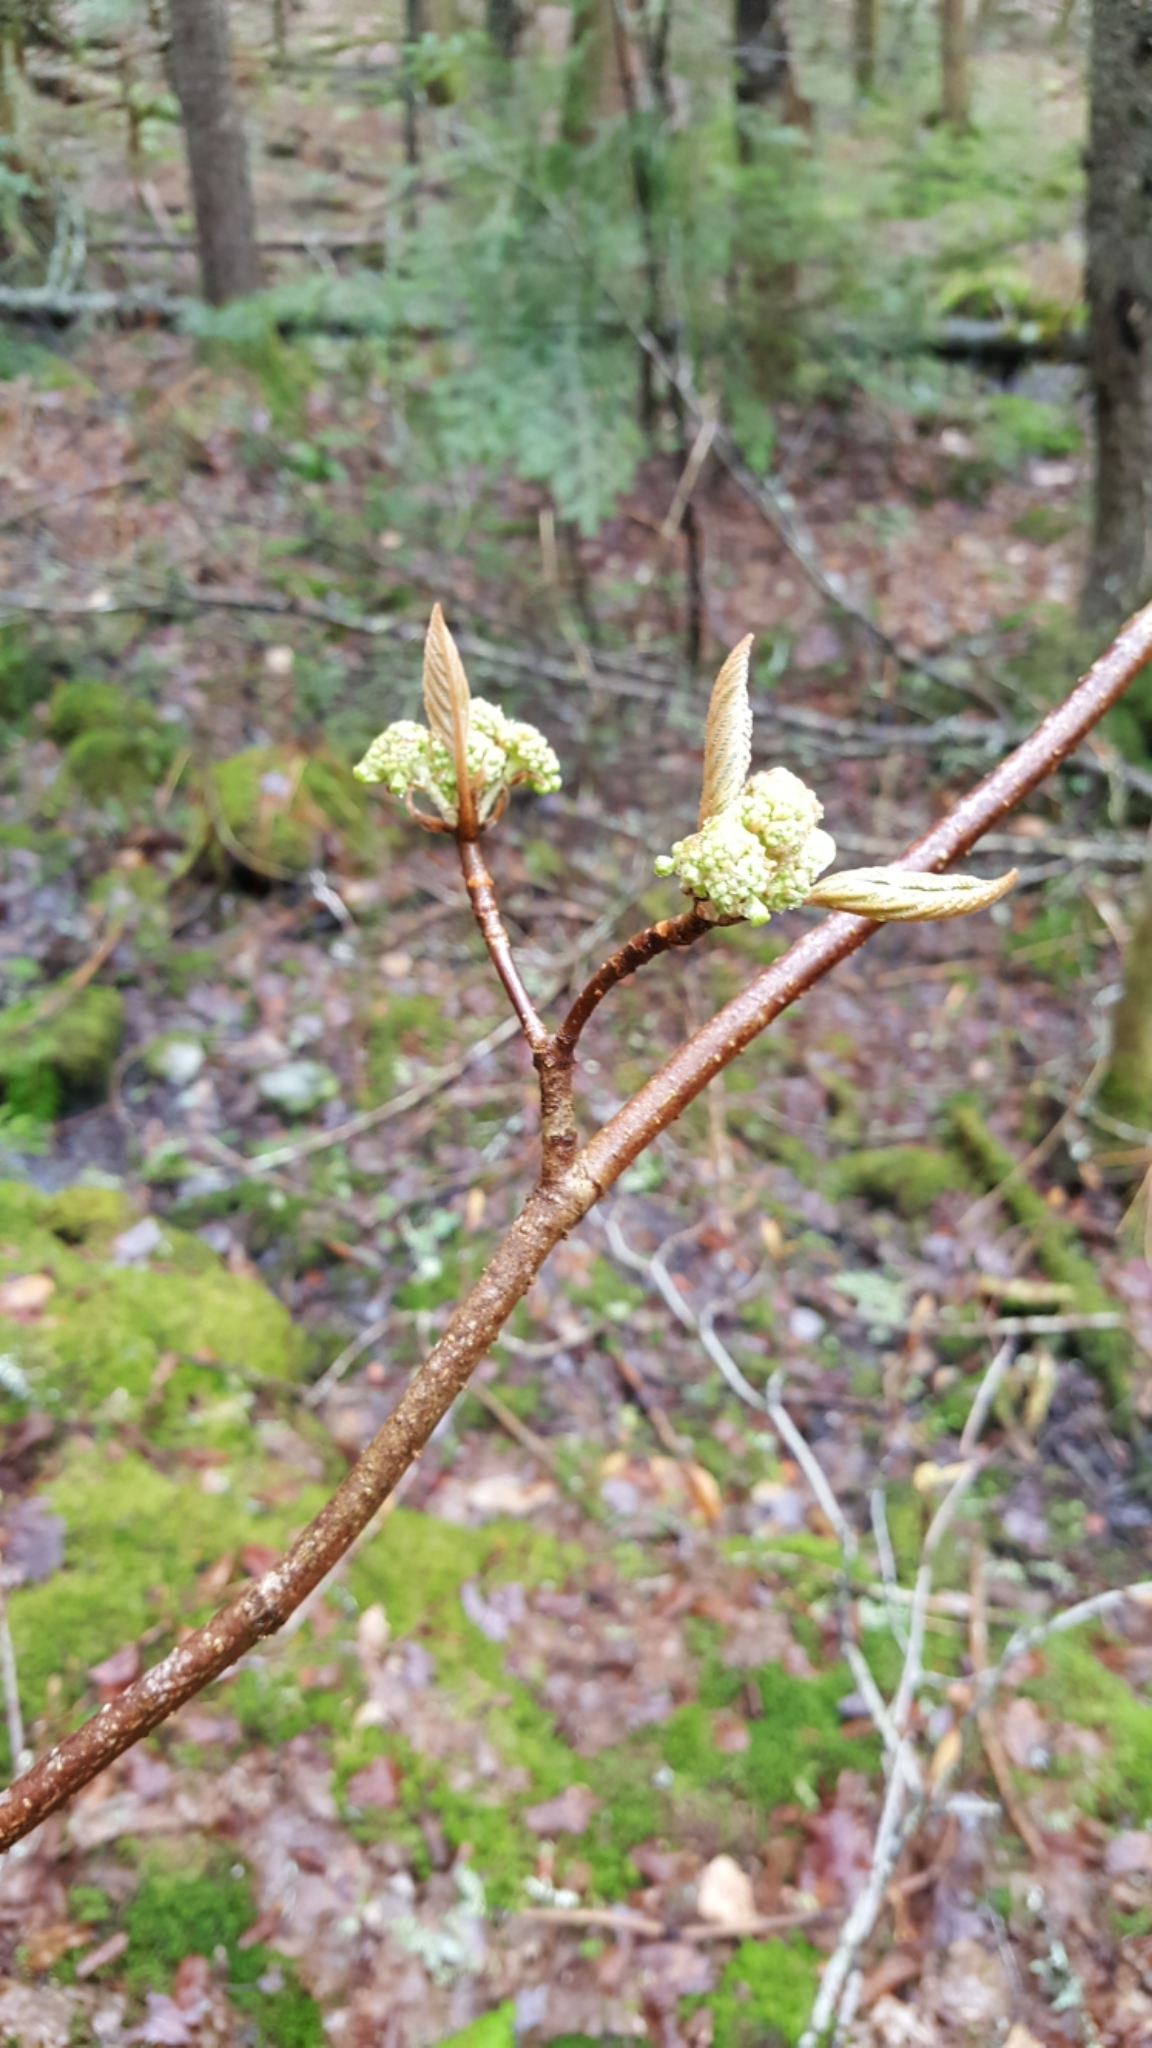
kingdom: Plantae
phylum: Tracheophyta
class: Magnoliopsida
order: Dipsacales
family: Viburnaceae
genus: Viburnum
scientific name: Viburnum lantanoides
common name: Hobblebush
